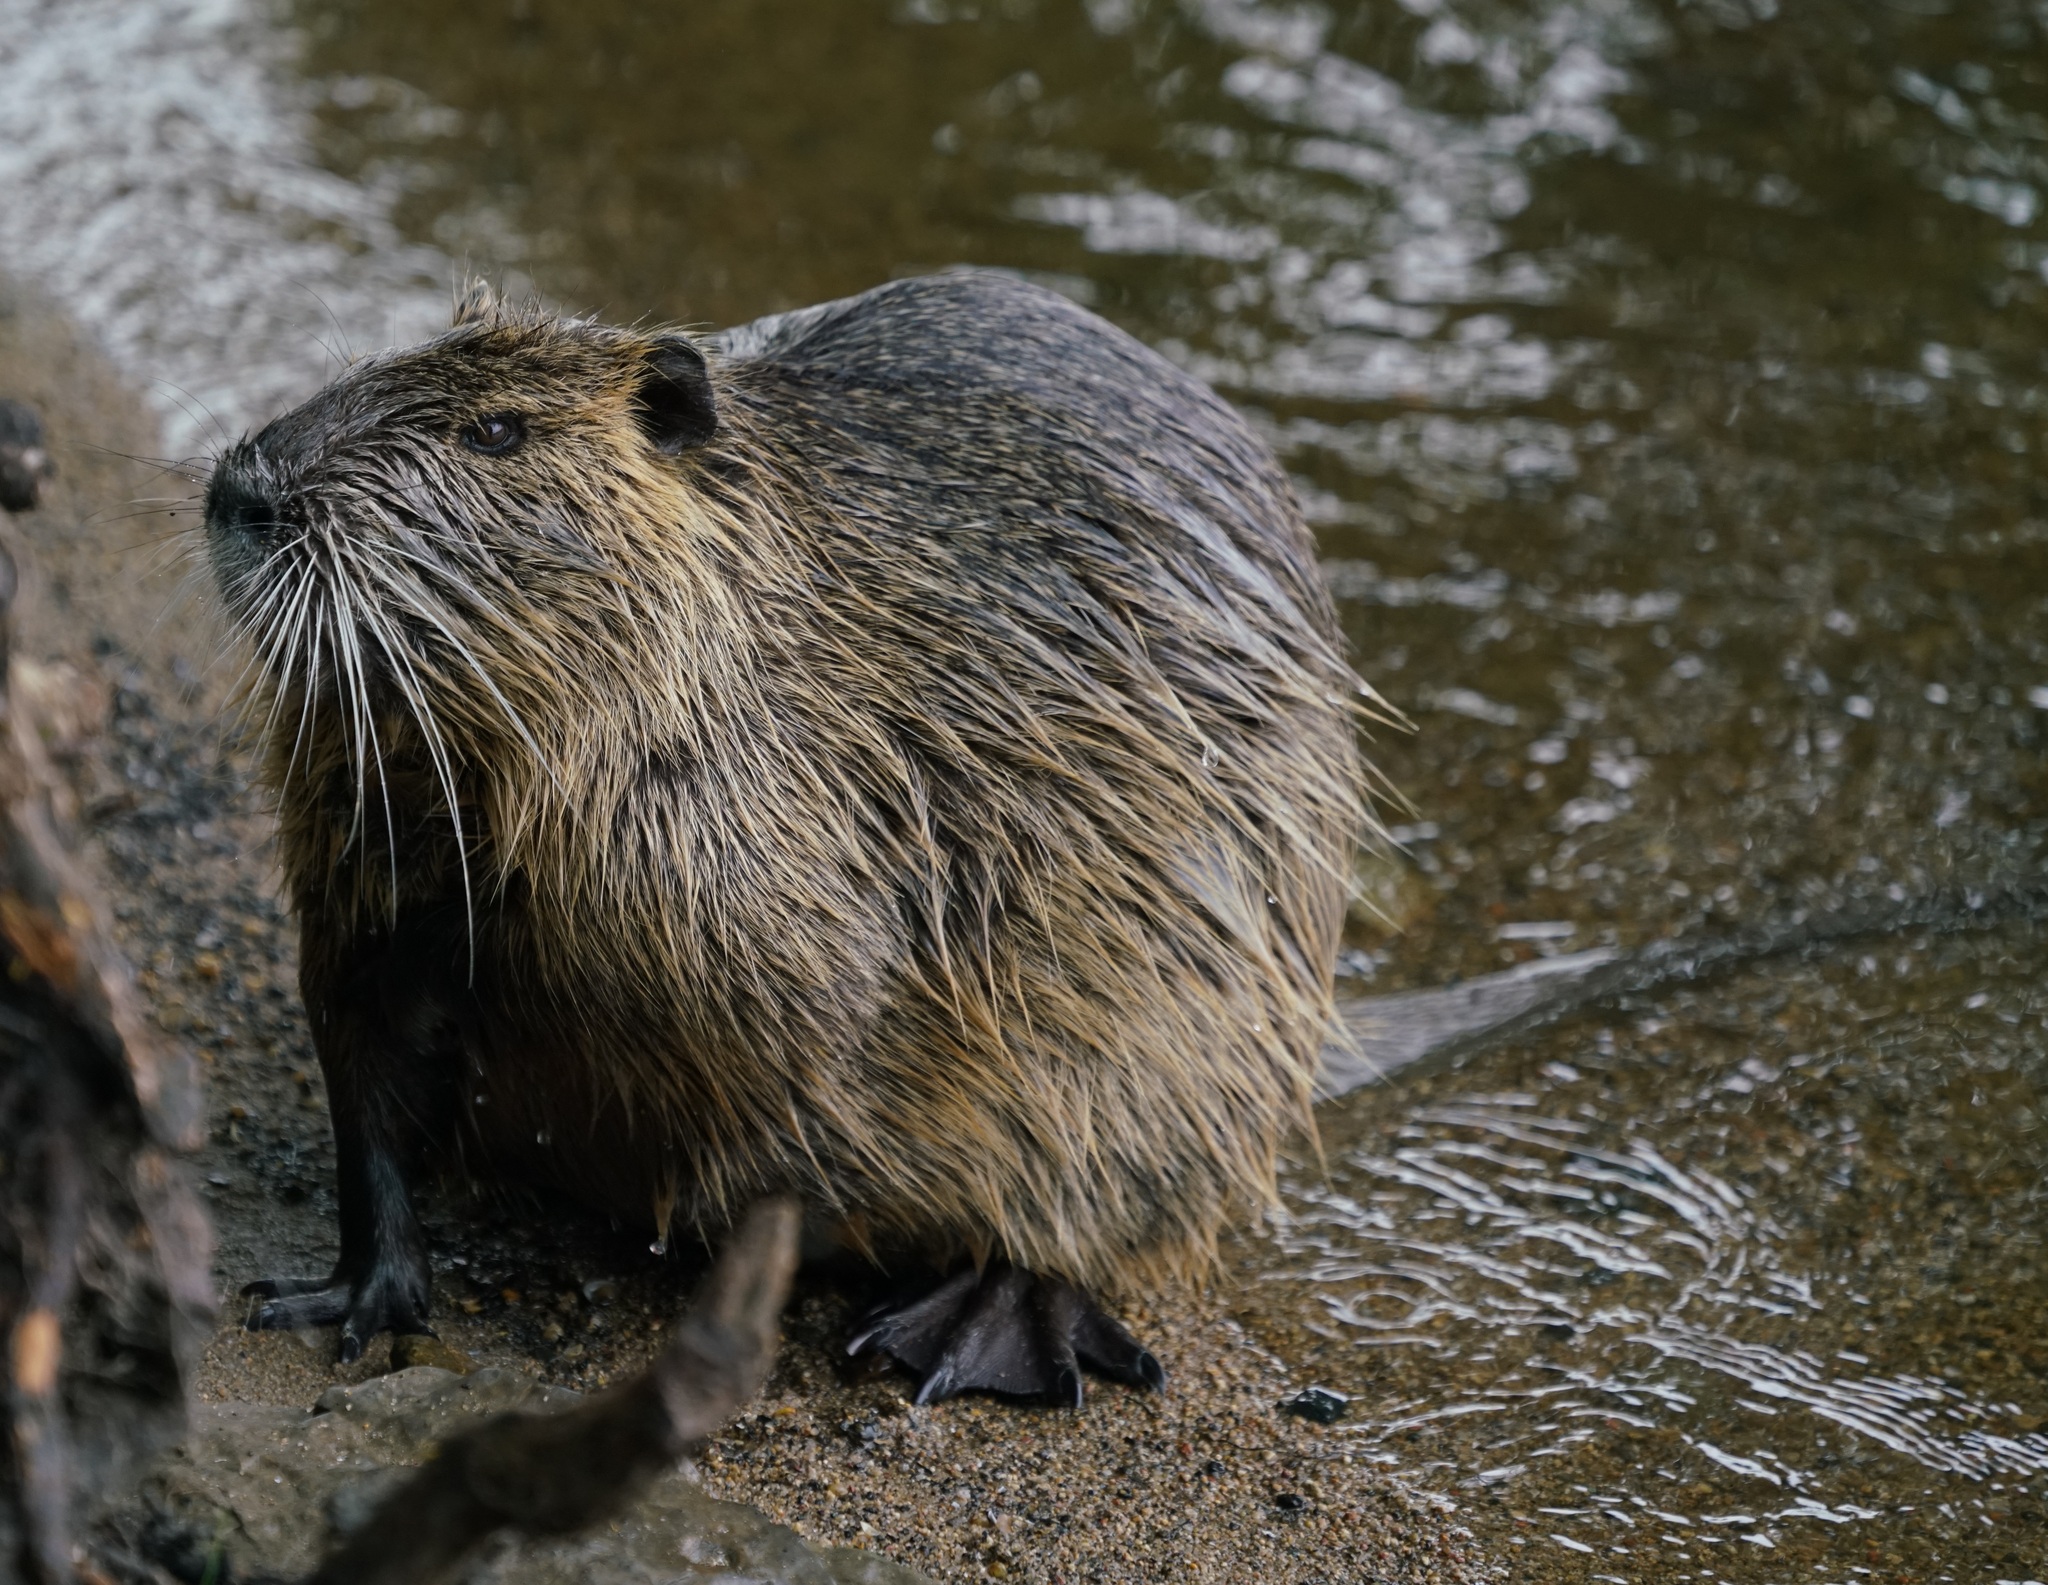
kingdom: Animalia
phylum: Chordata
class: Mammalia
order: Rodentia
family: Myocastoridae
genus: Myocastor
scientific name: Myocastor coypus
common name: Coypu
